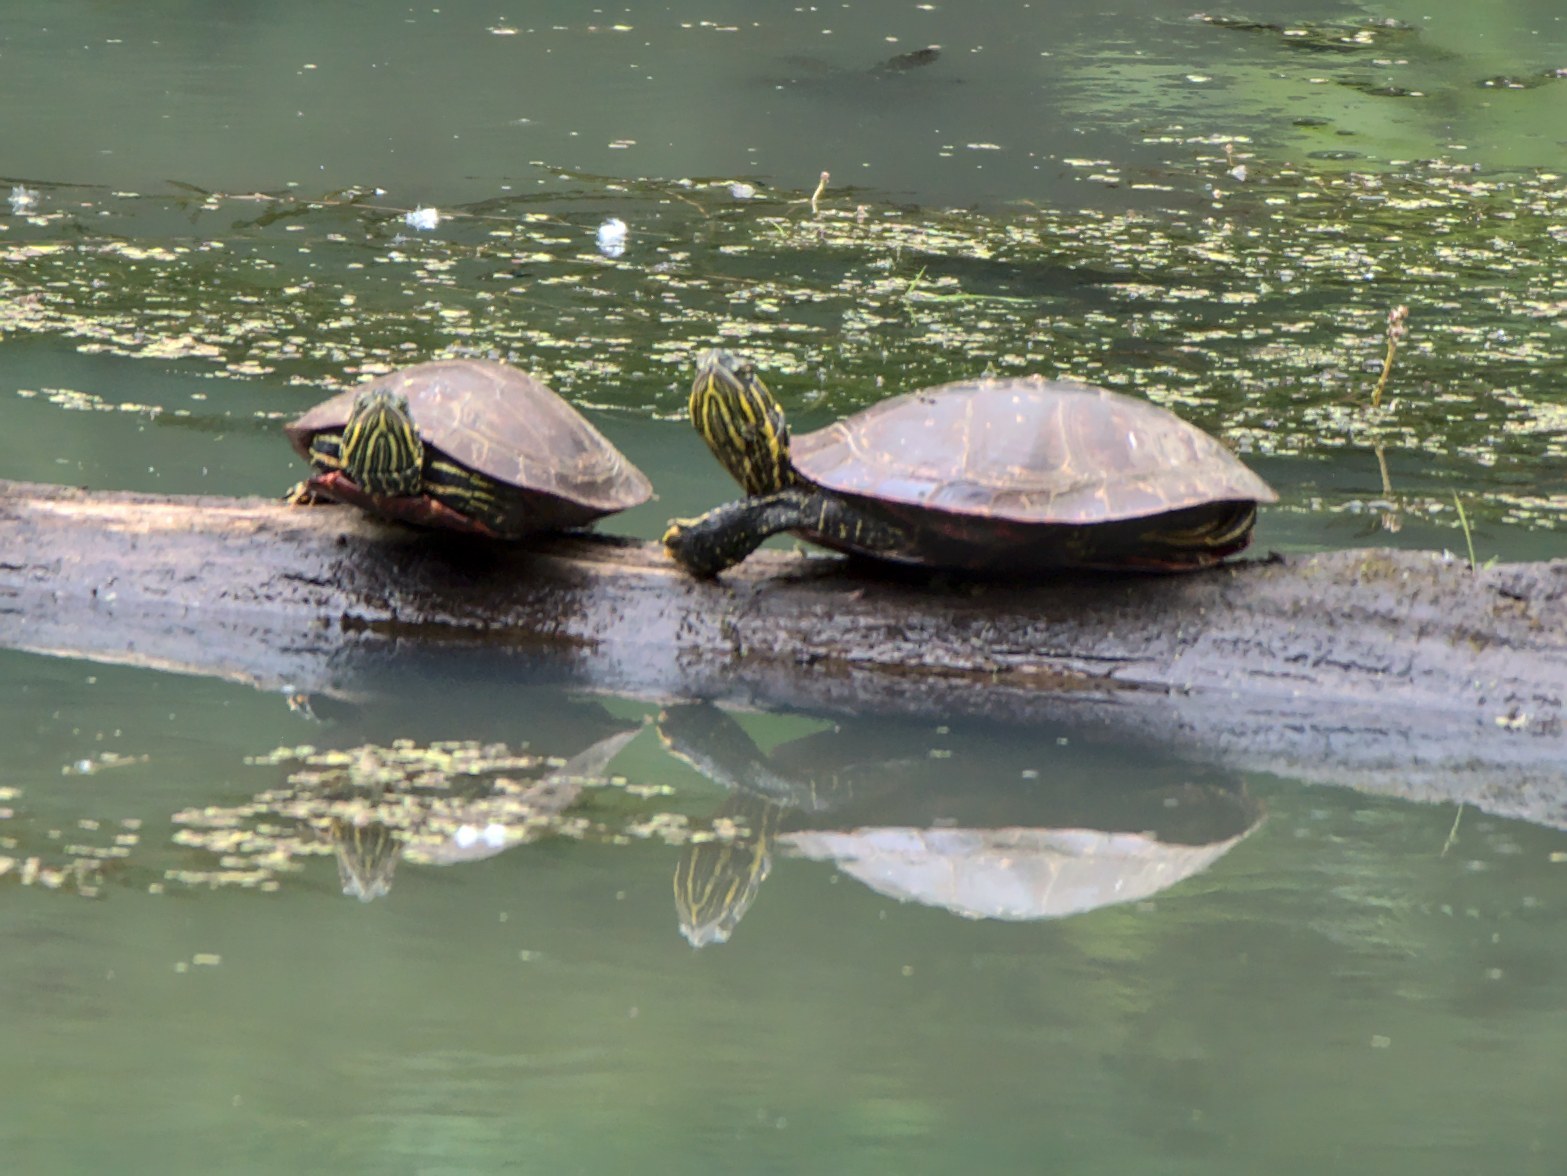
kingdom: Animalia
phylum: Chordata
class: Testudines
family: Emydidae
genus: Chrysemys
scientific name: Chrysemys picta
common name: Painted turtle
